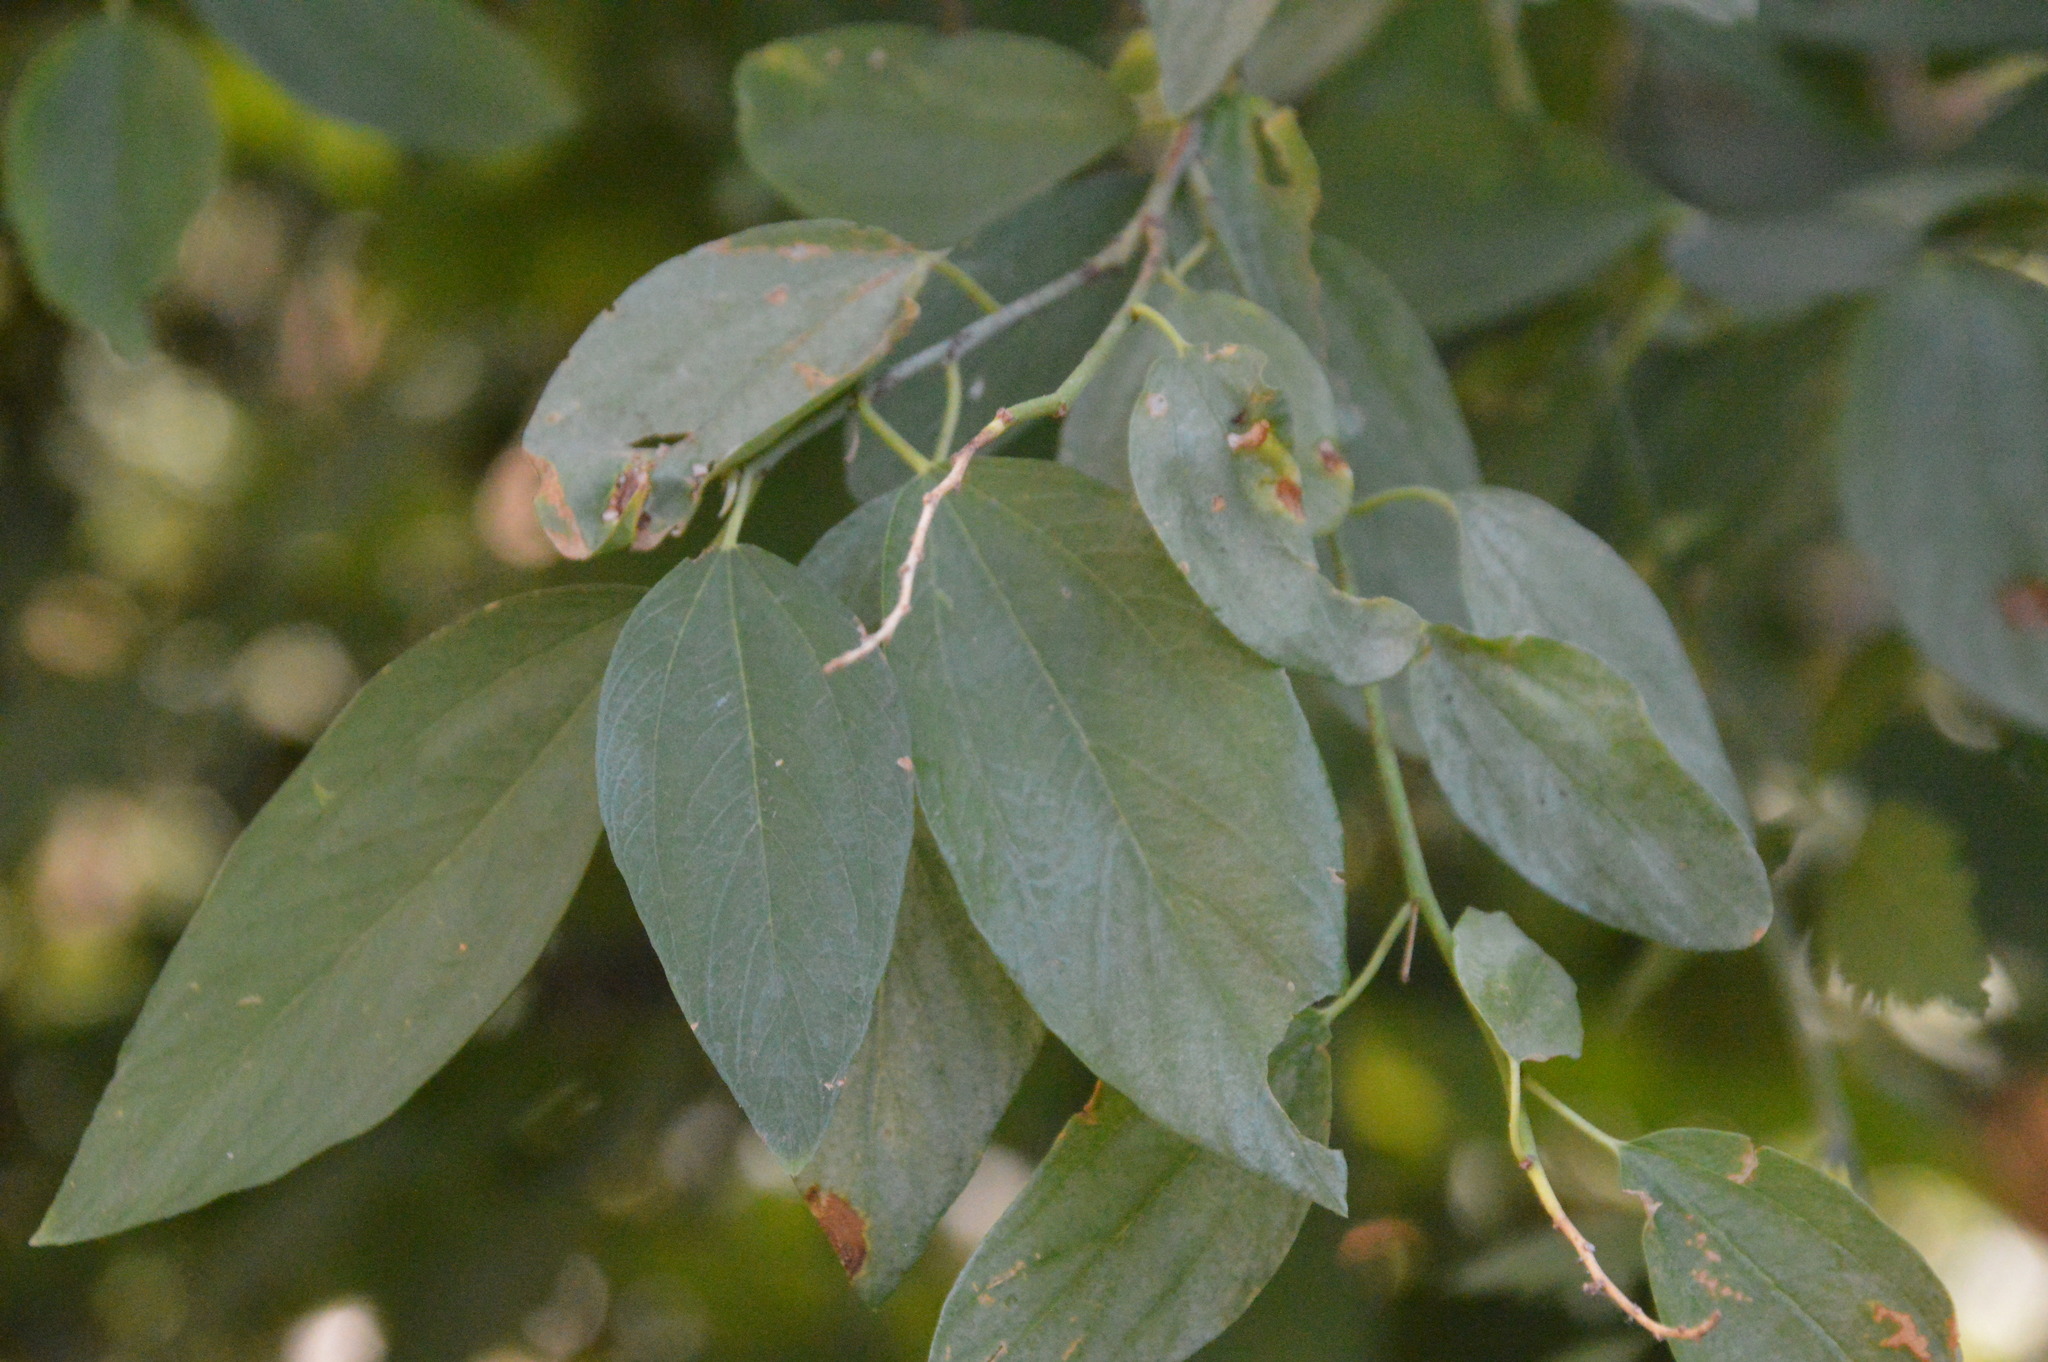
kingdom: Plantae
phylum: Tracheophyta
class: Magnoliopsida
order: Rosales
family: Rhamnaceae
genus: Ceanothus
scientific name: Ceanothus integerrimus
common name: Deerbrush ceanothus
